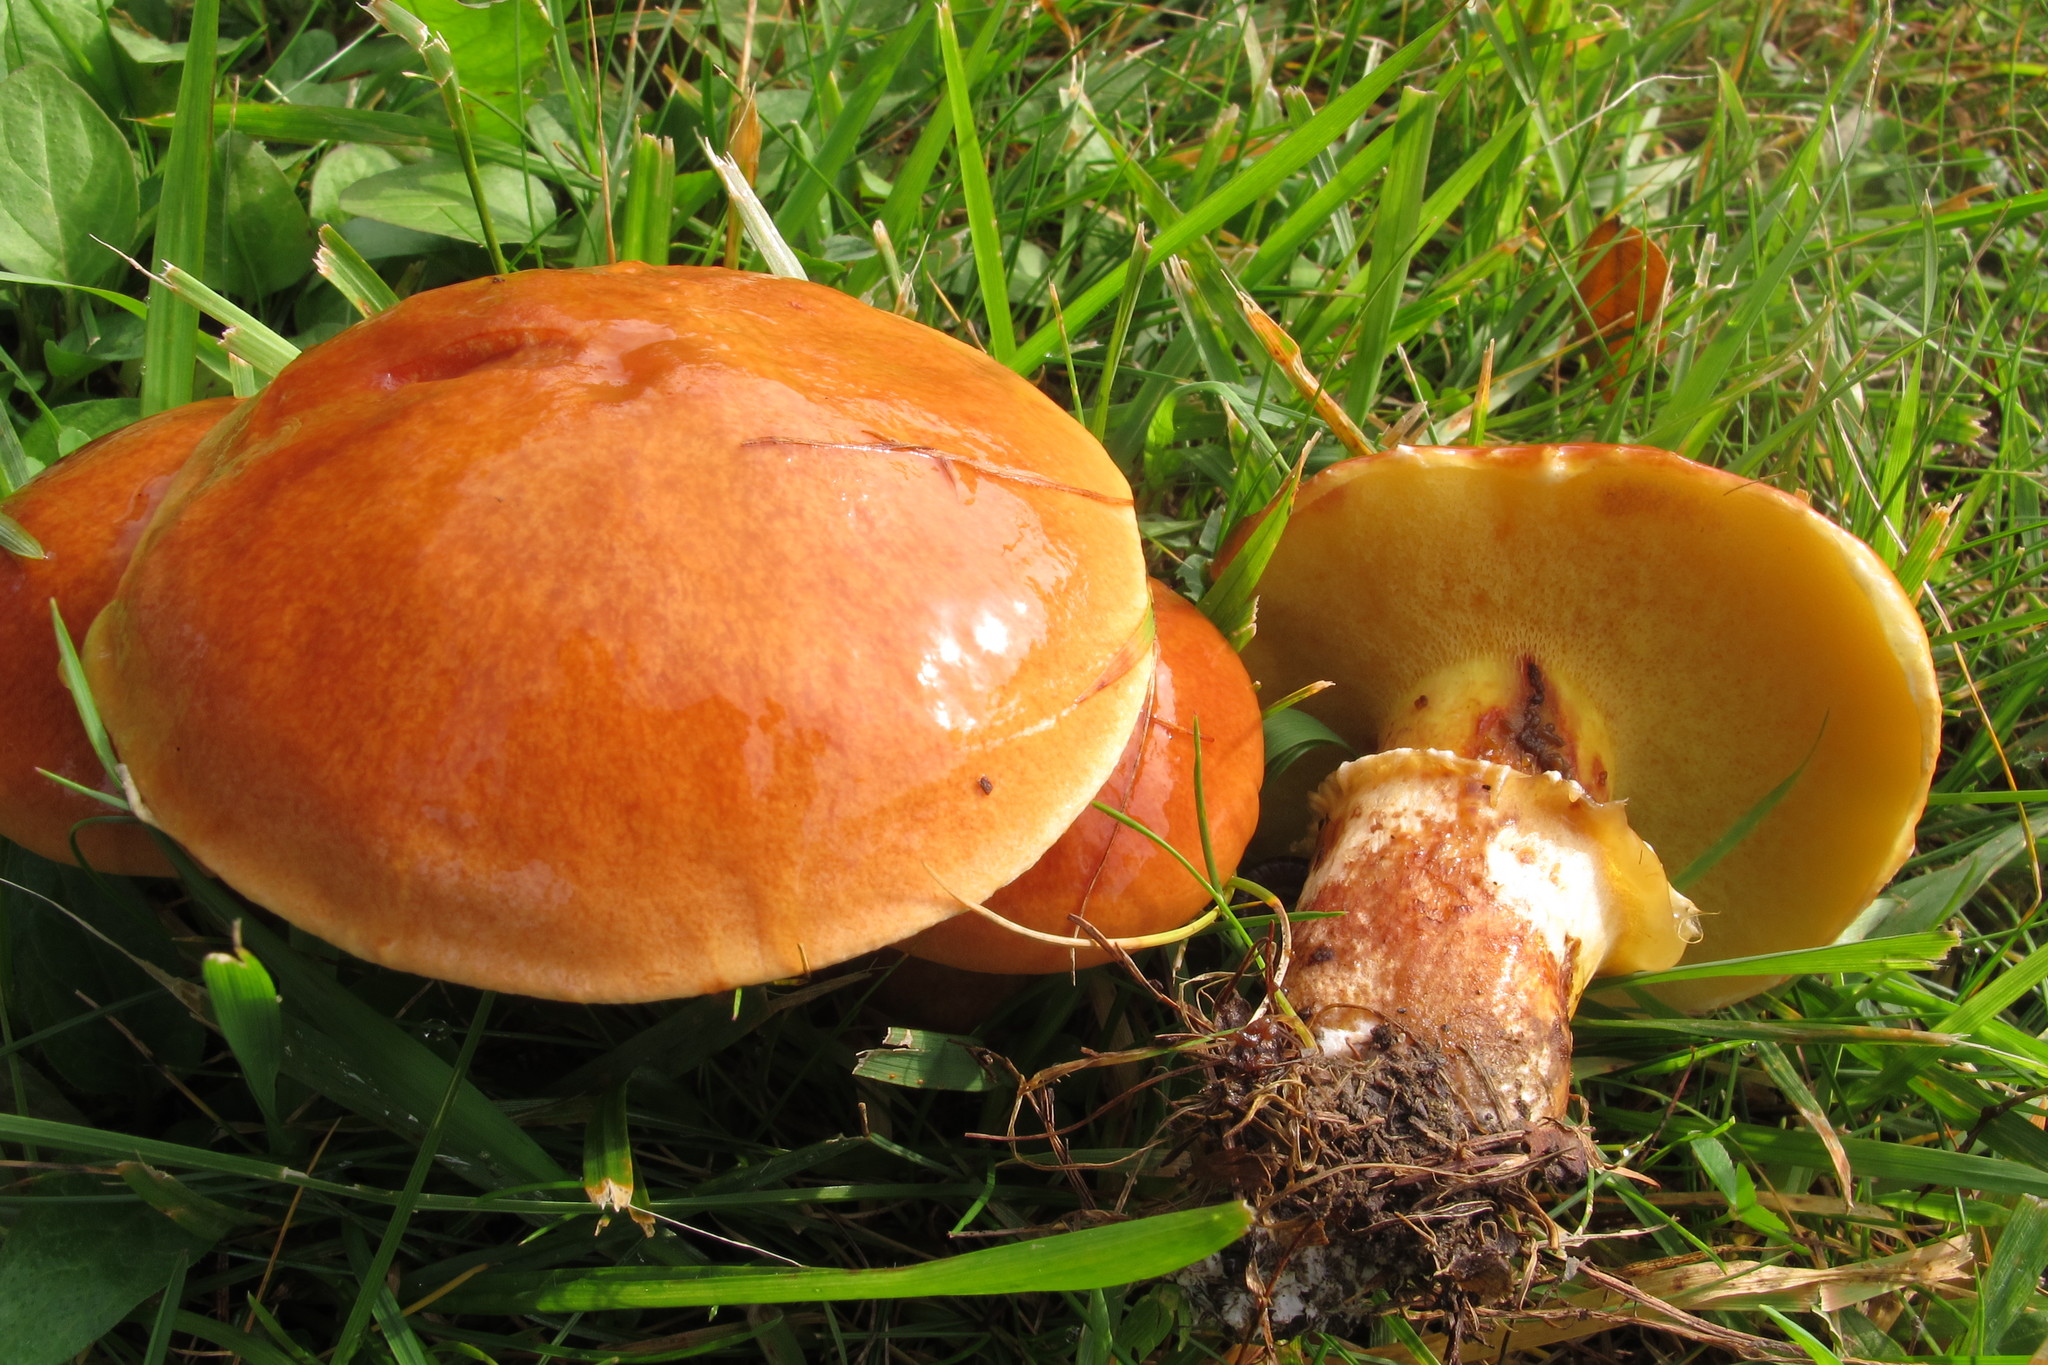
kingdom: Fungi
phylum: Basidiomycota
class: Agaricomycetes
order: Boletales
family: Suillaceae
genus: Suillus
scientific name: Suillus grevillei
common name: Larch bolete
